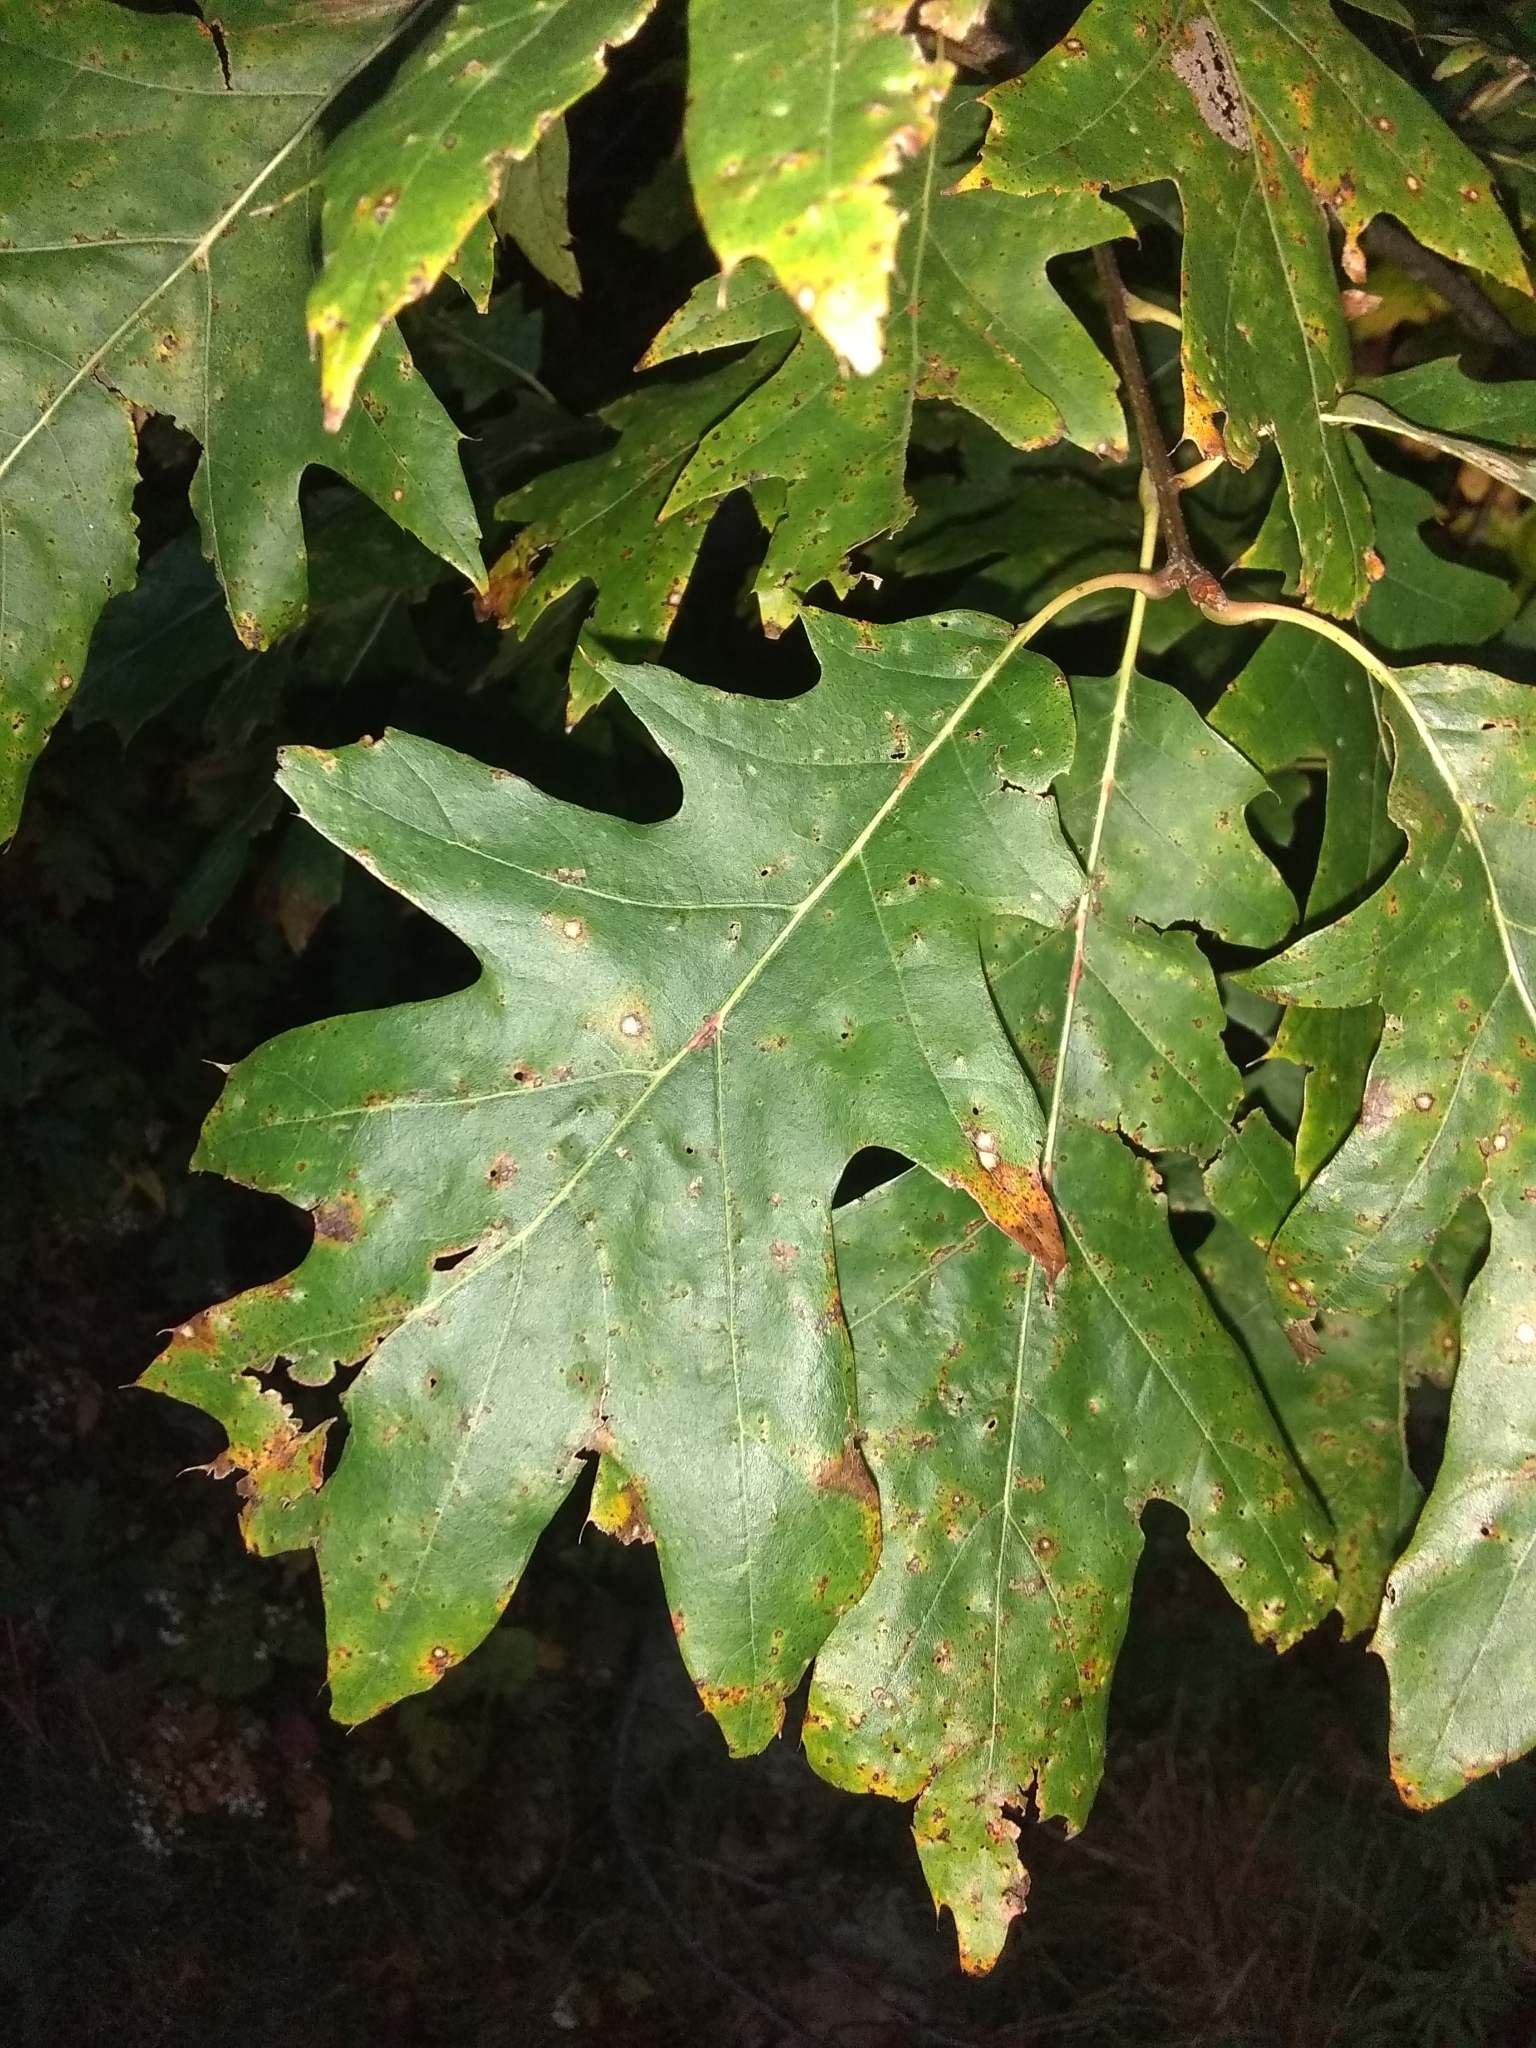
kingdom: Plantae
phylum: Tracheophyta
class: Magnoliopsida
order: Fagales
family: Fagaceae
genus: Quercus
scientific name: Quercus rubra
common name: Red oak
